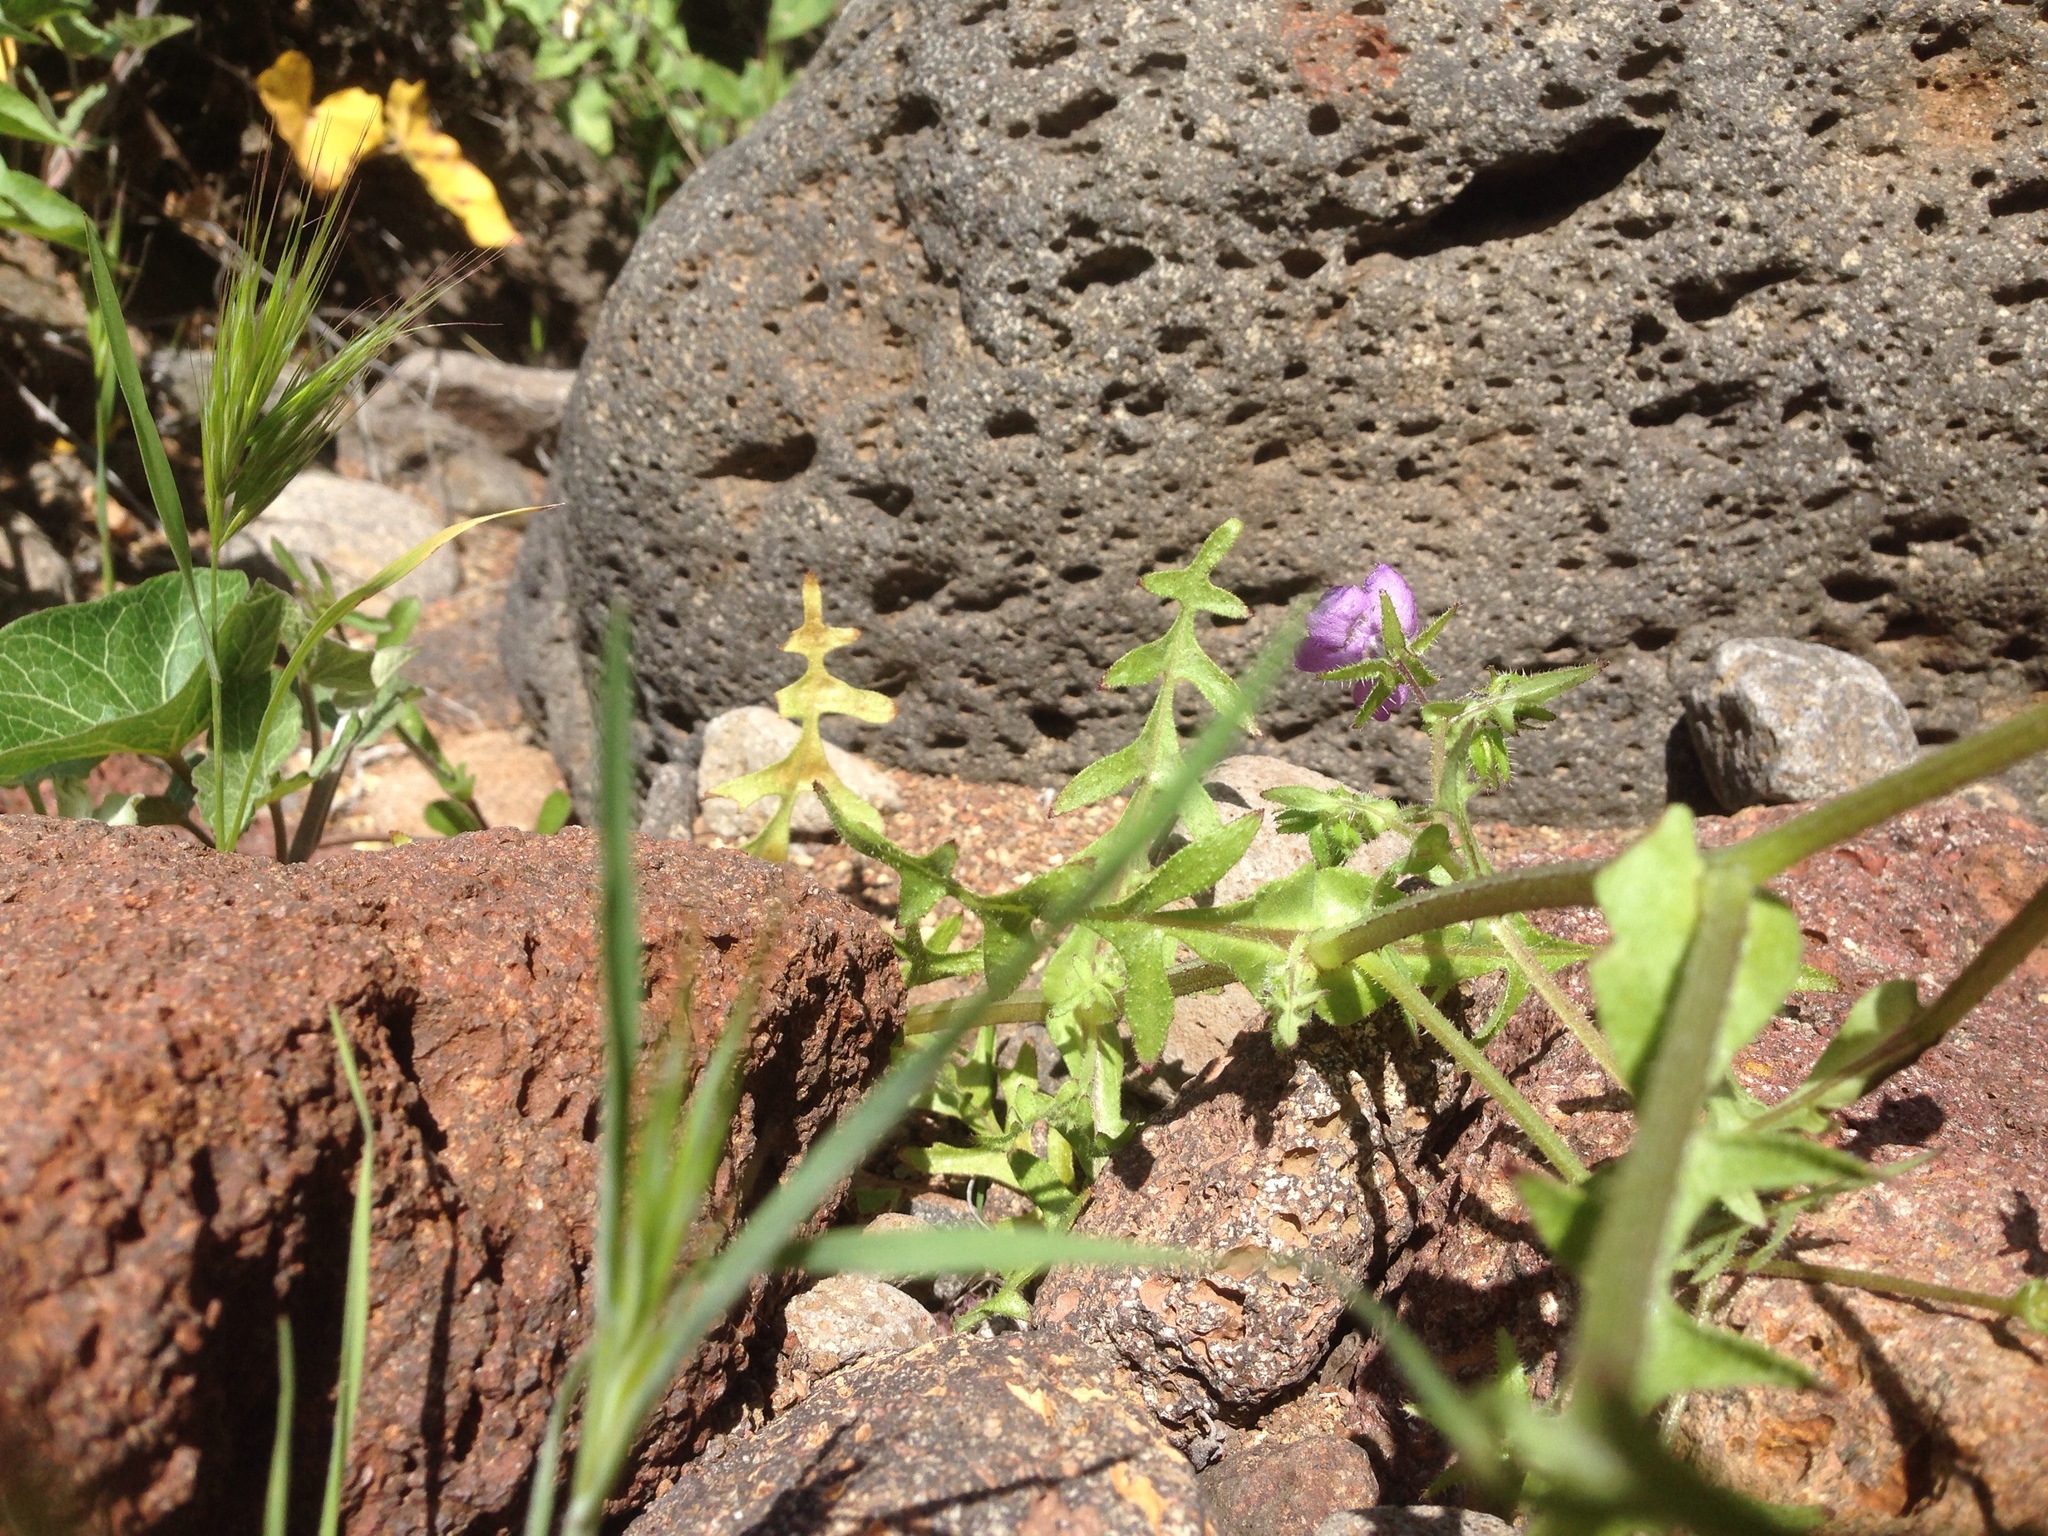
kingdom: Plantae
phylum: Tracheophyta
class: Magnoliopsida
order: Boraginales
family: Hydrophyllaceae
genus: Pholistoma
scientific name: Pholistoma auritum
